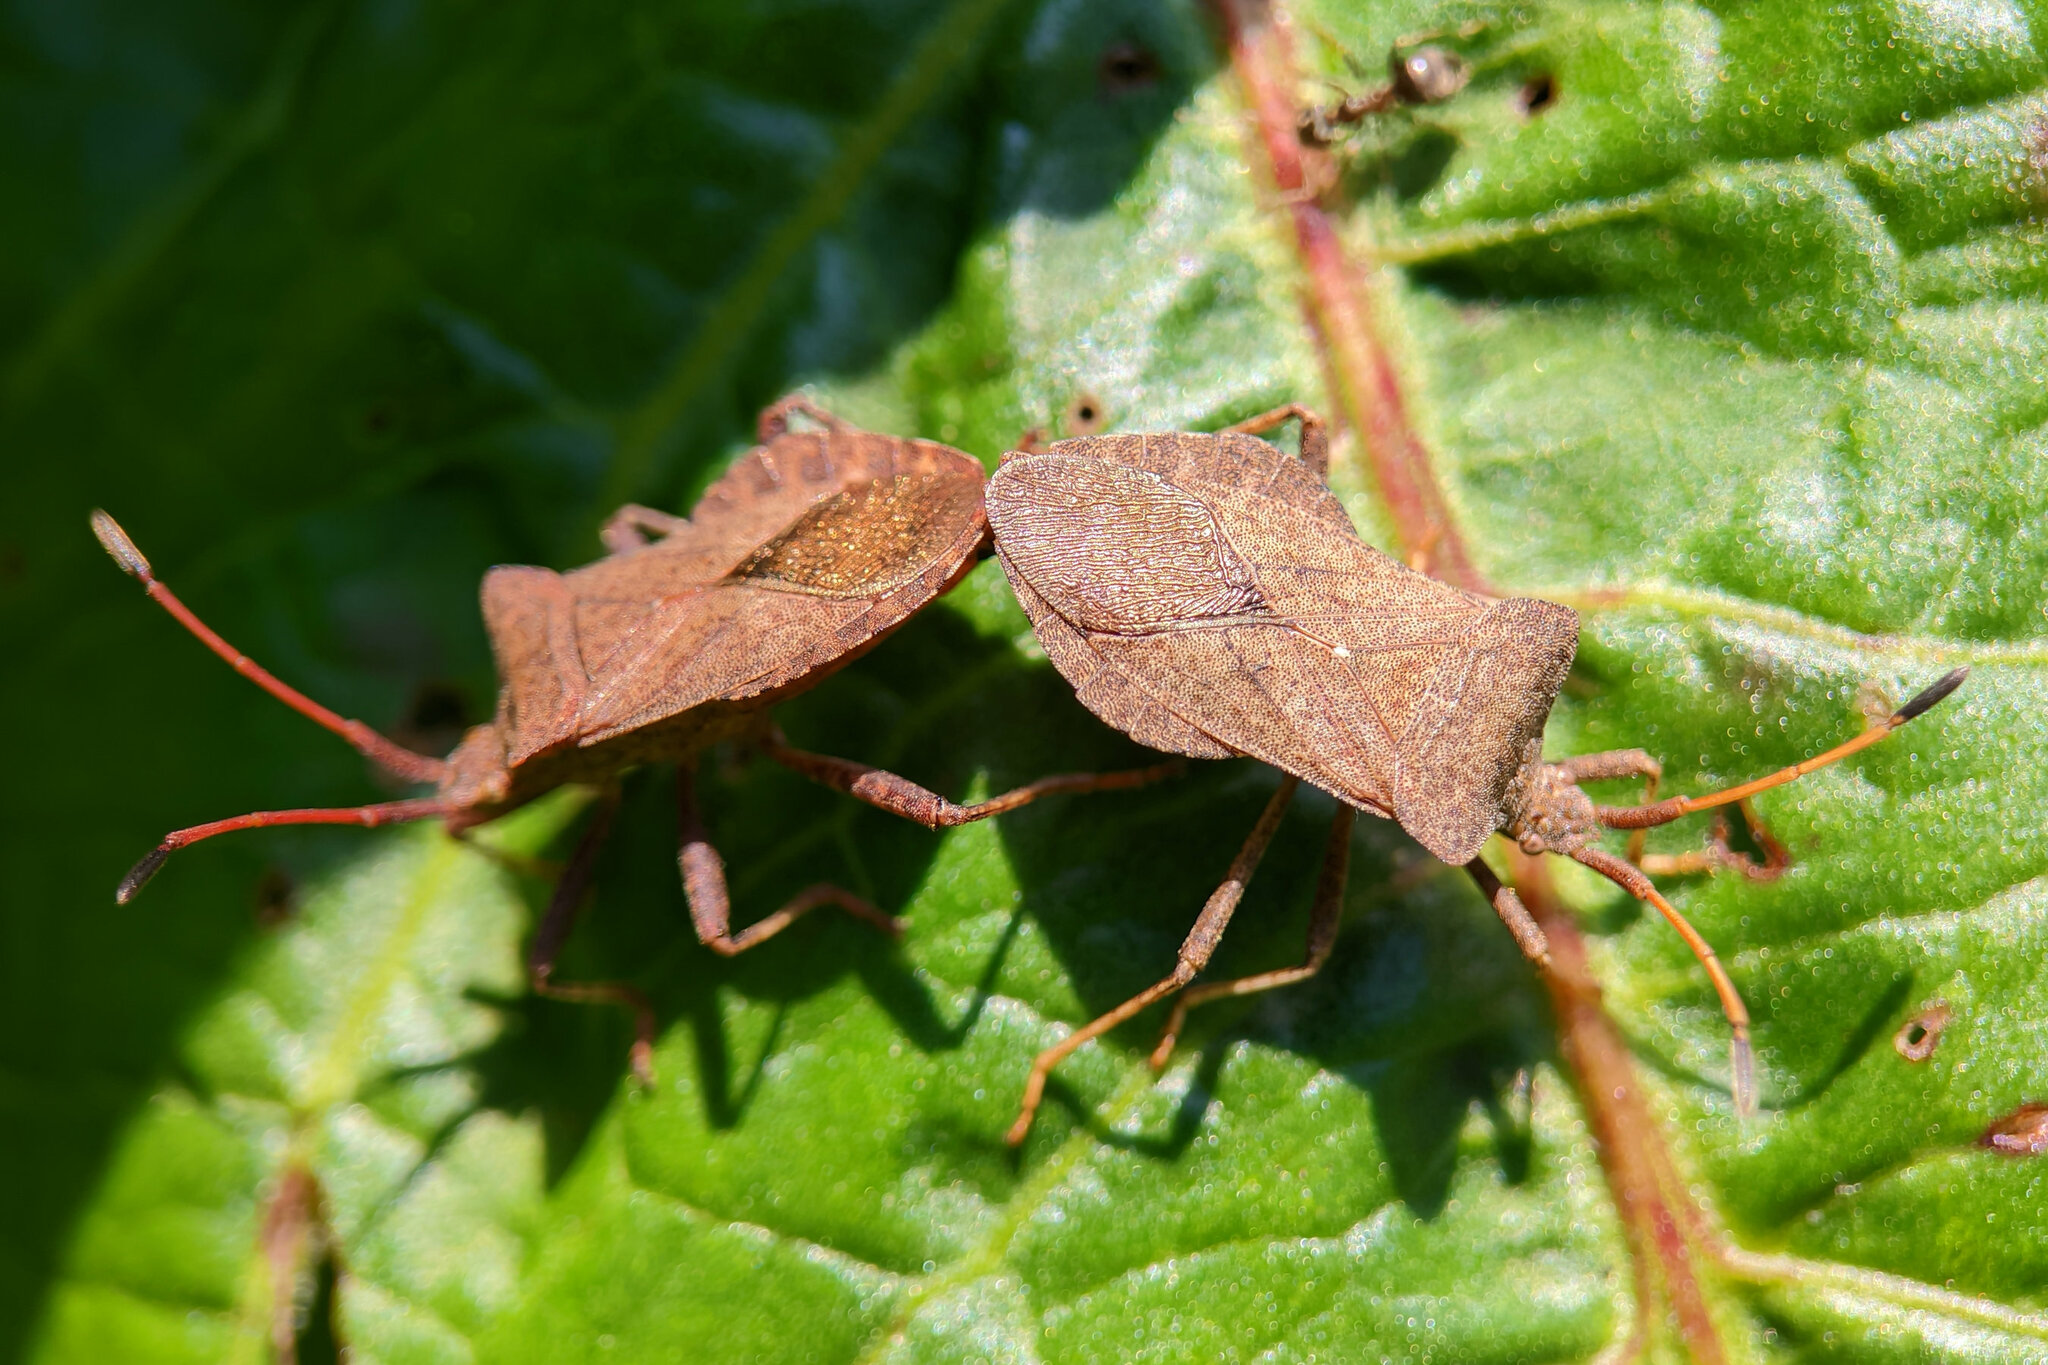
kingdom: Animalia
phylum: Arthropoda
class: Insecta
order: Hemiptera
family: Coreidae
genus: Coreus
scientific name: Coreus marginatus
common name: Dock bug
